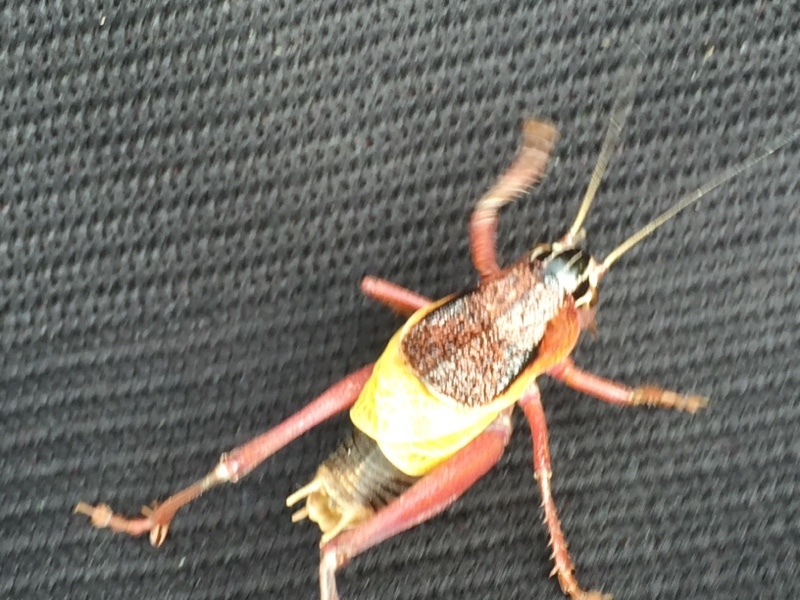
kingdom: Animalia
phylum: Arthropoda
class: Insecta
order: Orthoptera
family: Tettigoniidae
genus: Psorodonotus
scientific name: Psorodonotus caucasicus
